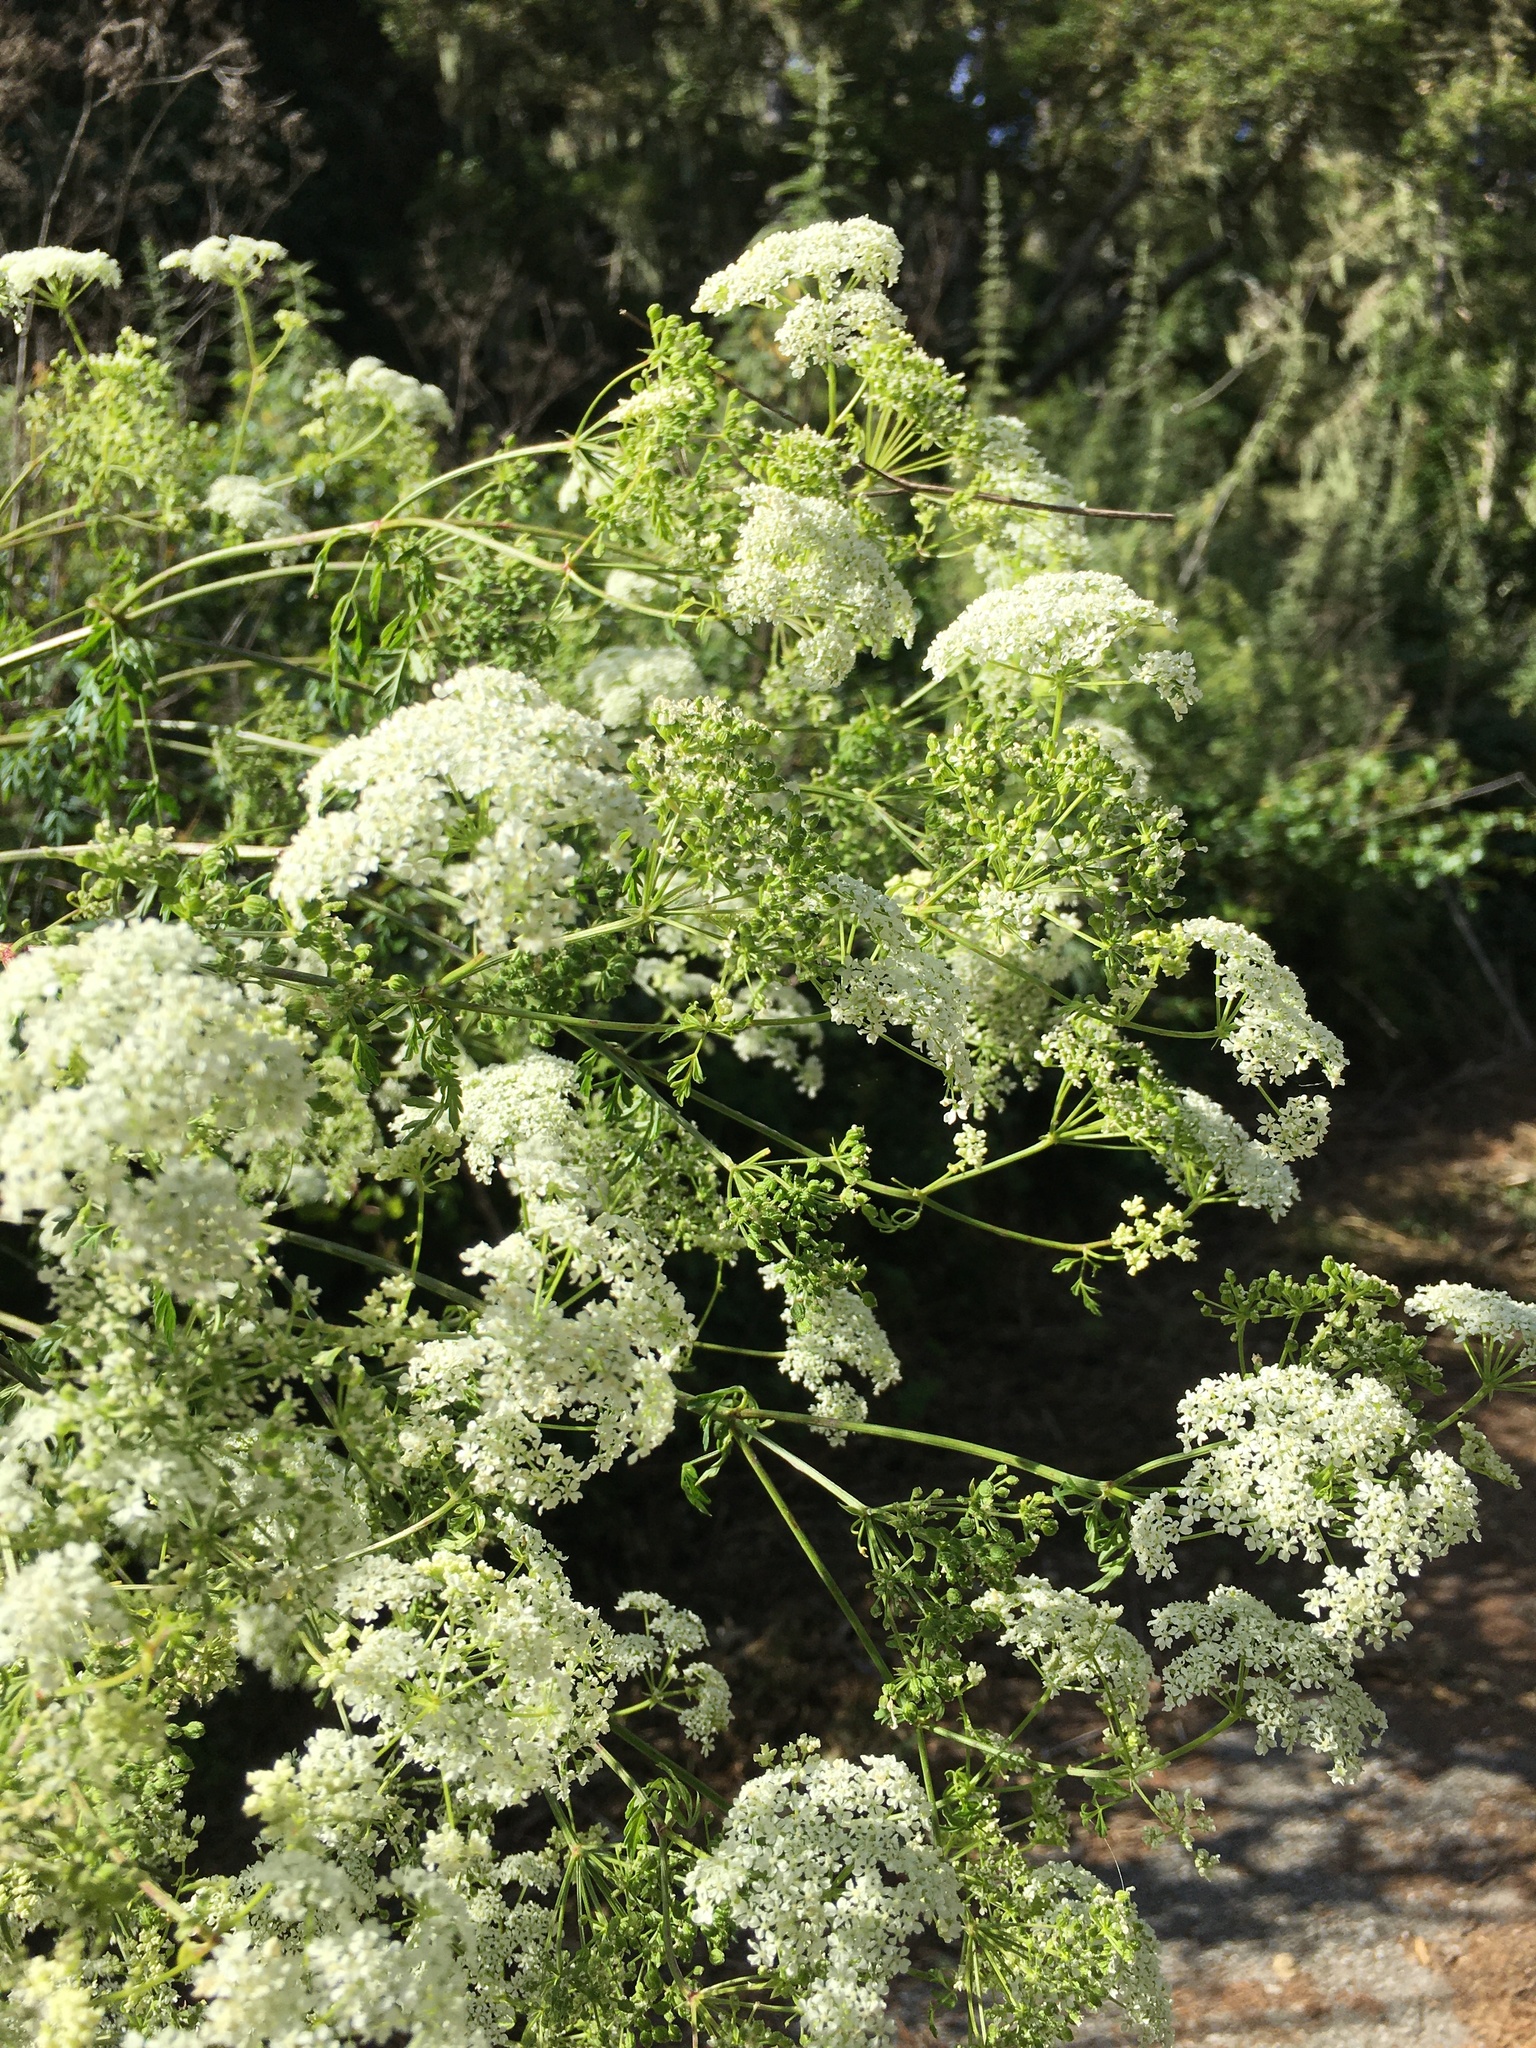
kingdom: Plantae
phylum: Tracheophyta
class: Magnoliopsida
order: Apiales
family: Apiaceae
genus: Conium
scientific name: Conium maculatum
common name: Hemlock
